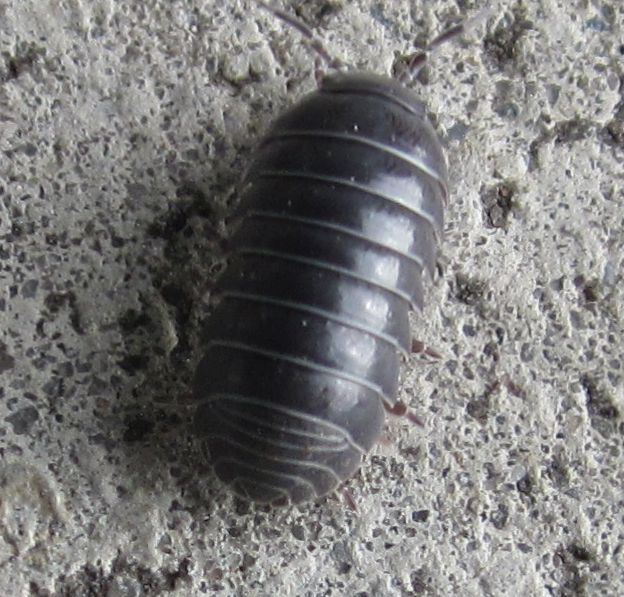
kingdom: Animalia
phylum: Arthropoda
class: Malacostraca
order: Isopoda
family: Armadillidiidae
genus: Armadillidium
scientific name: Armadillidium vulgare
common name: Common pill woodlouse
